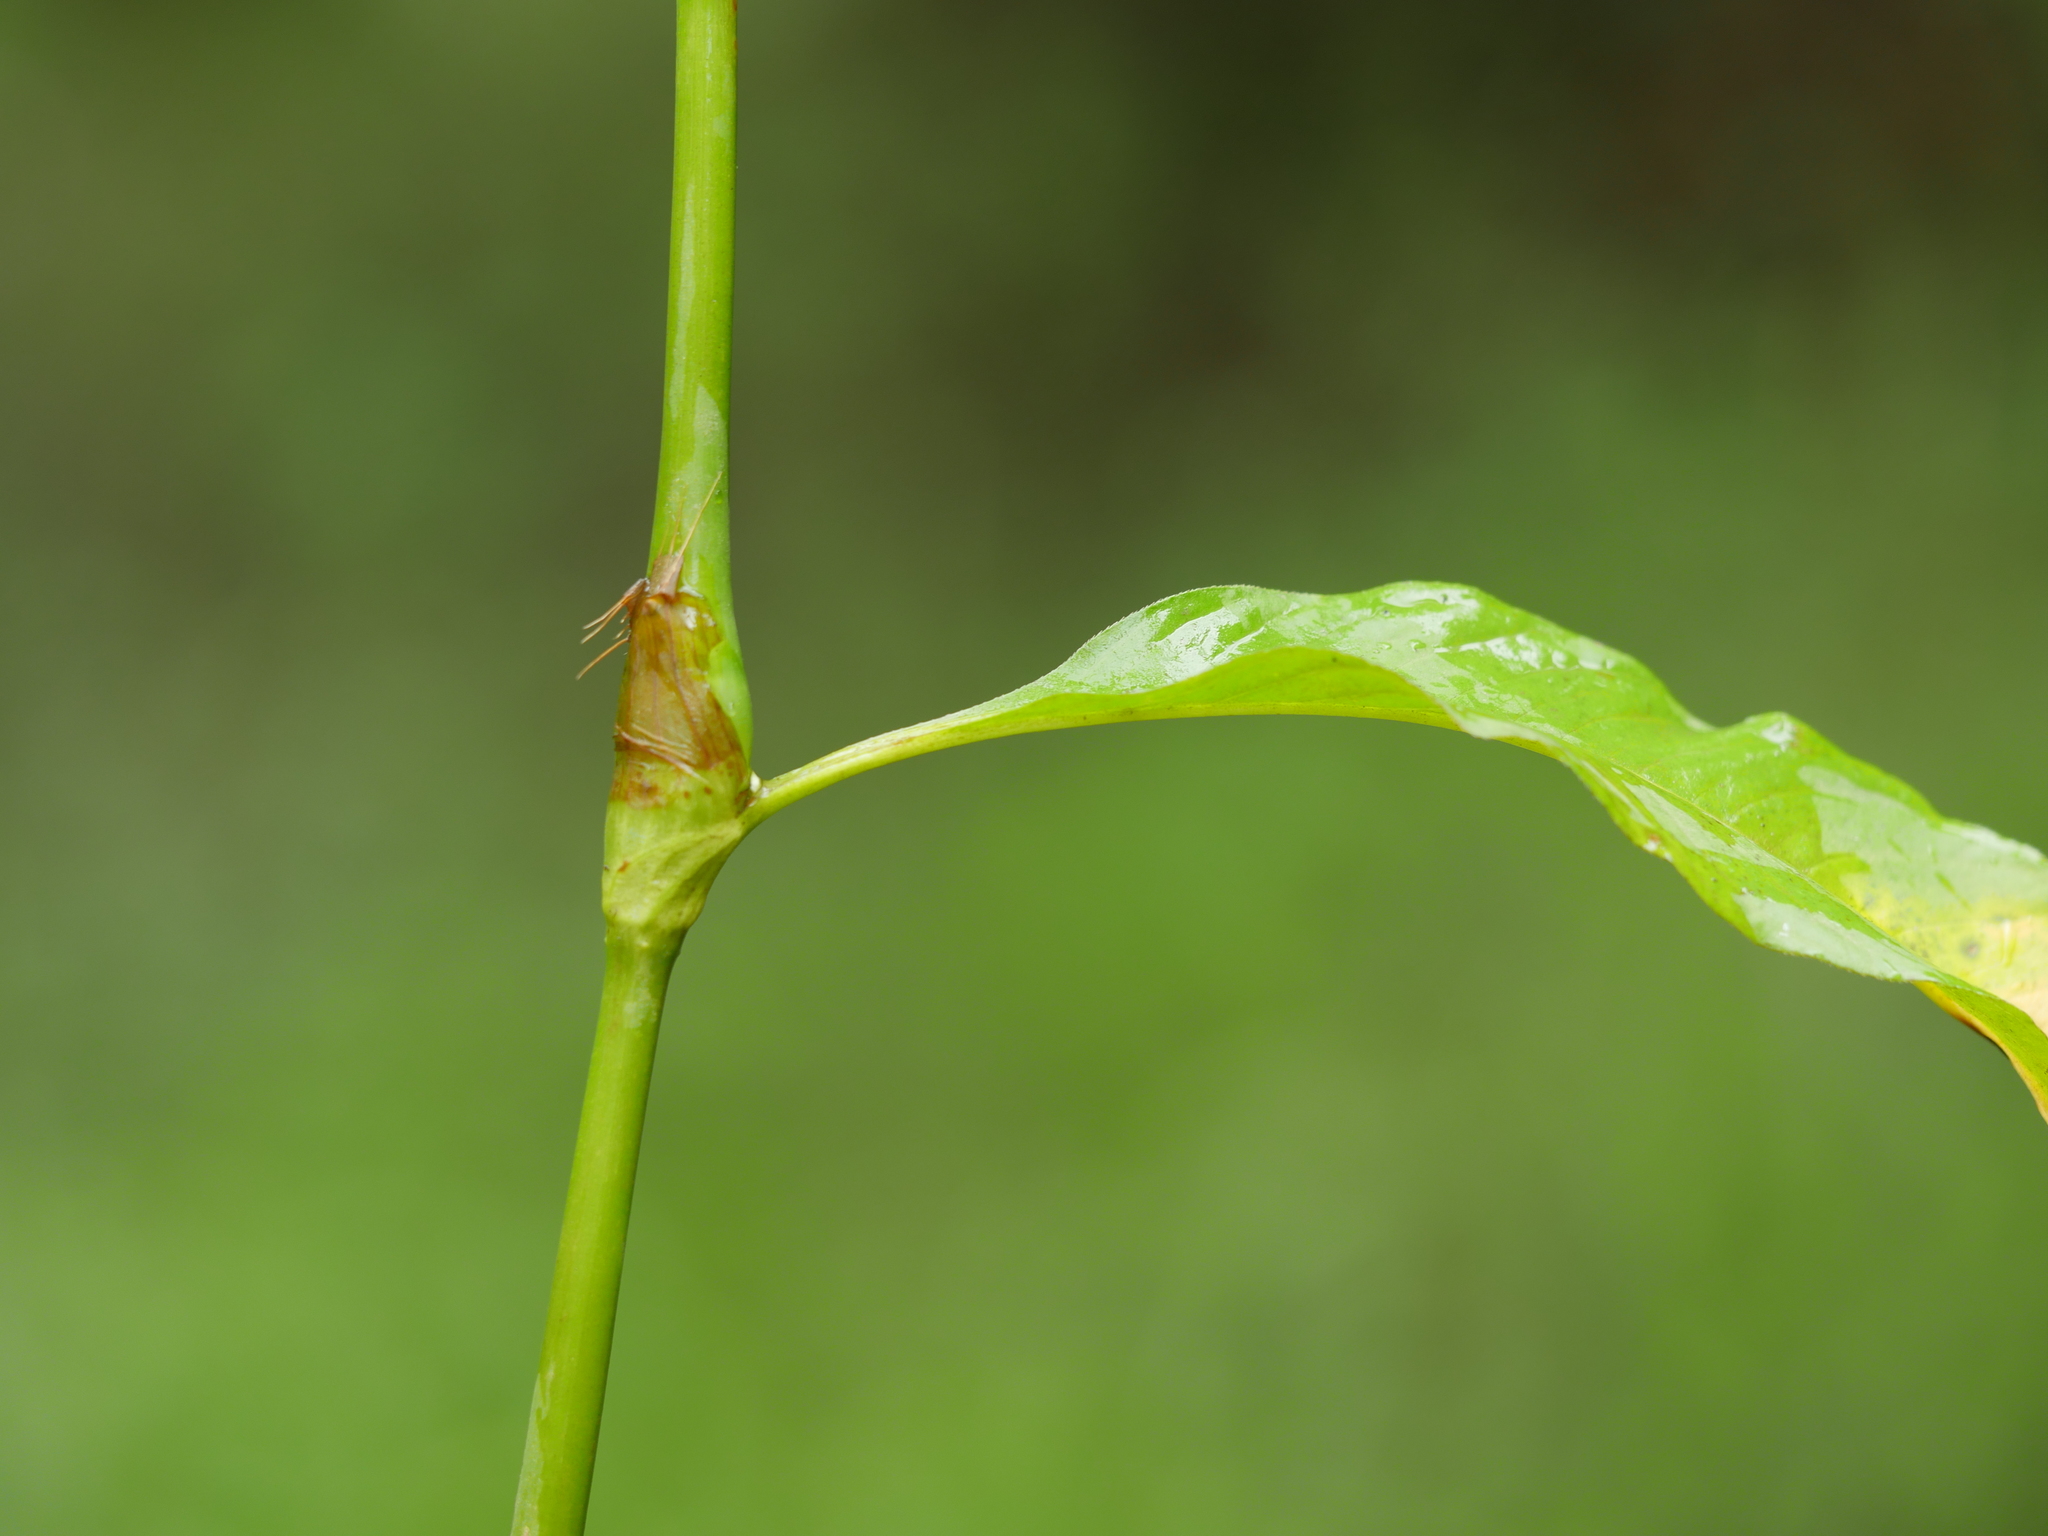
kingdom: Plantae
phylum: Tracheophyta
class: Magnoliopsida
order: Caryophyllales
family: Polygonaceae
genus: Persicaria
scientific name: Persicaria hydropiper
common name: Water-pepper
